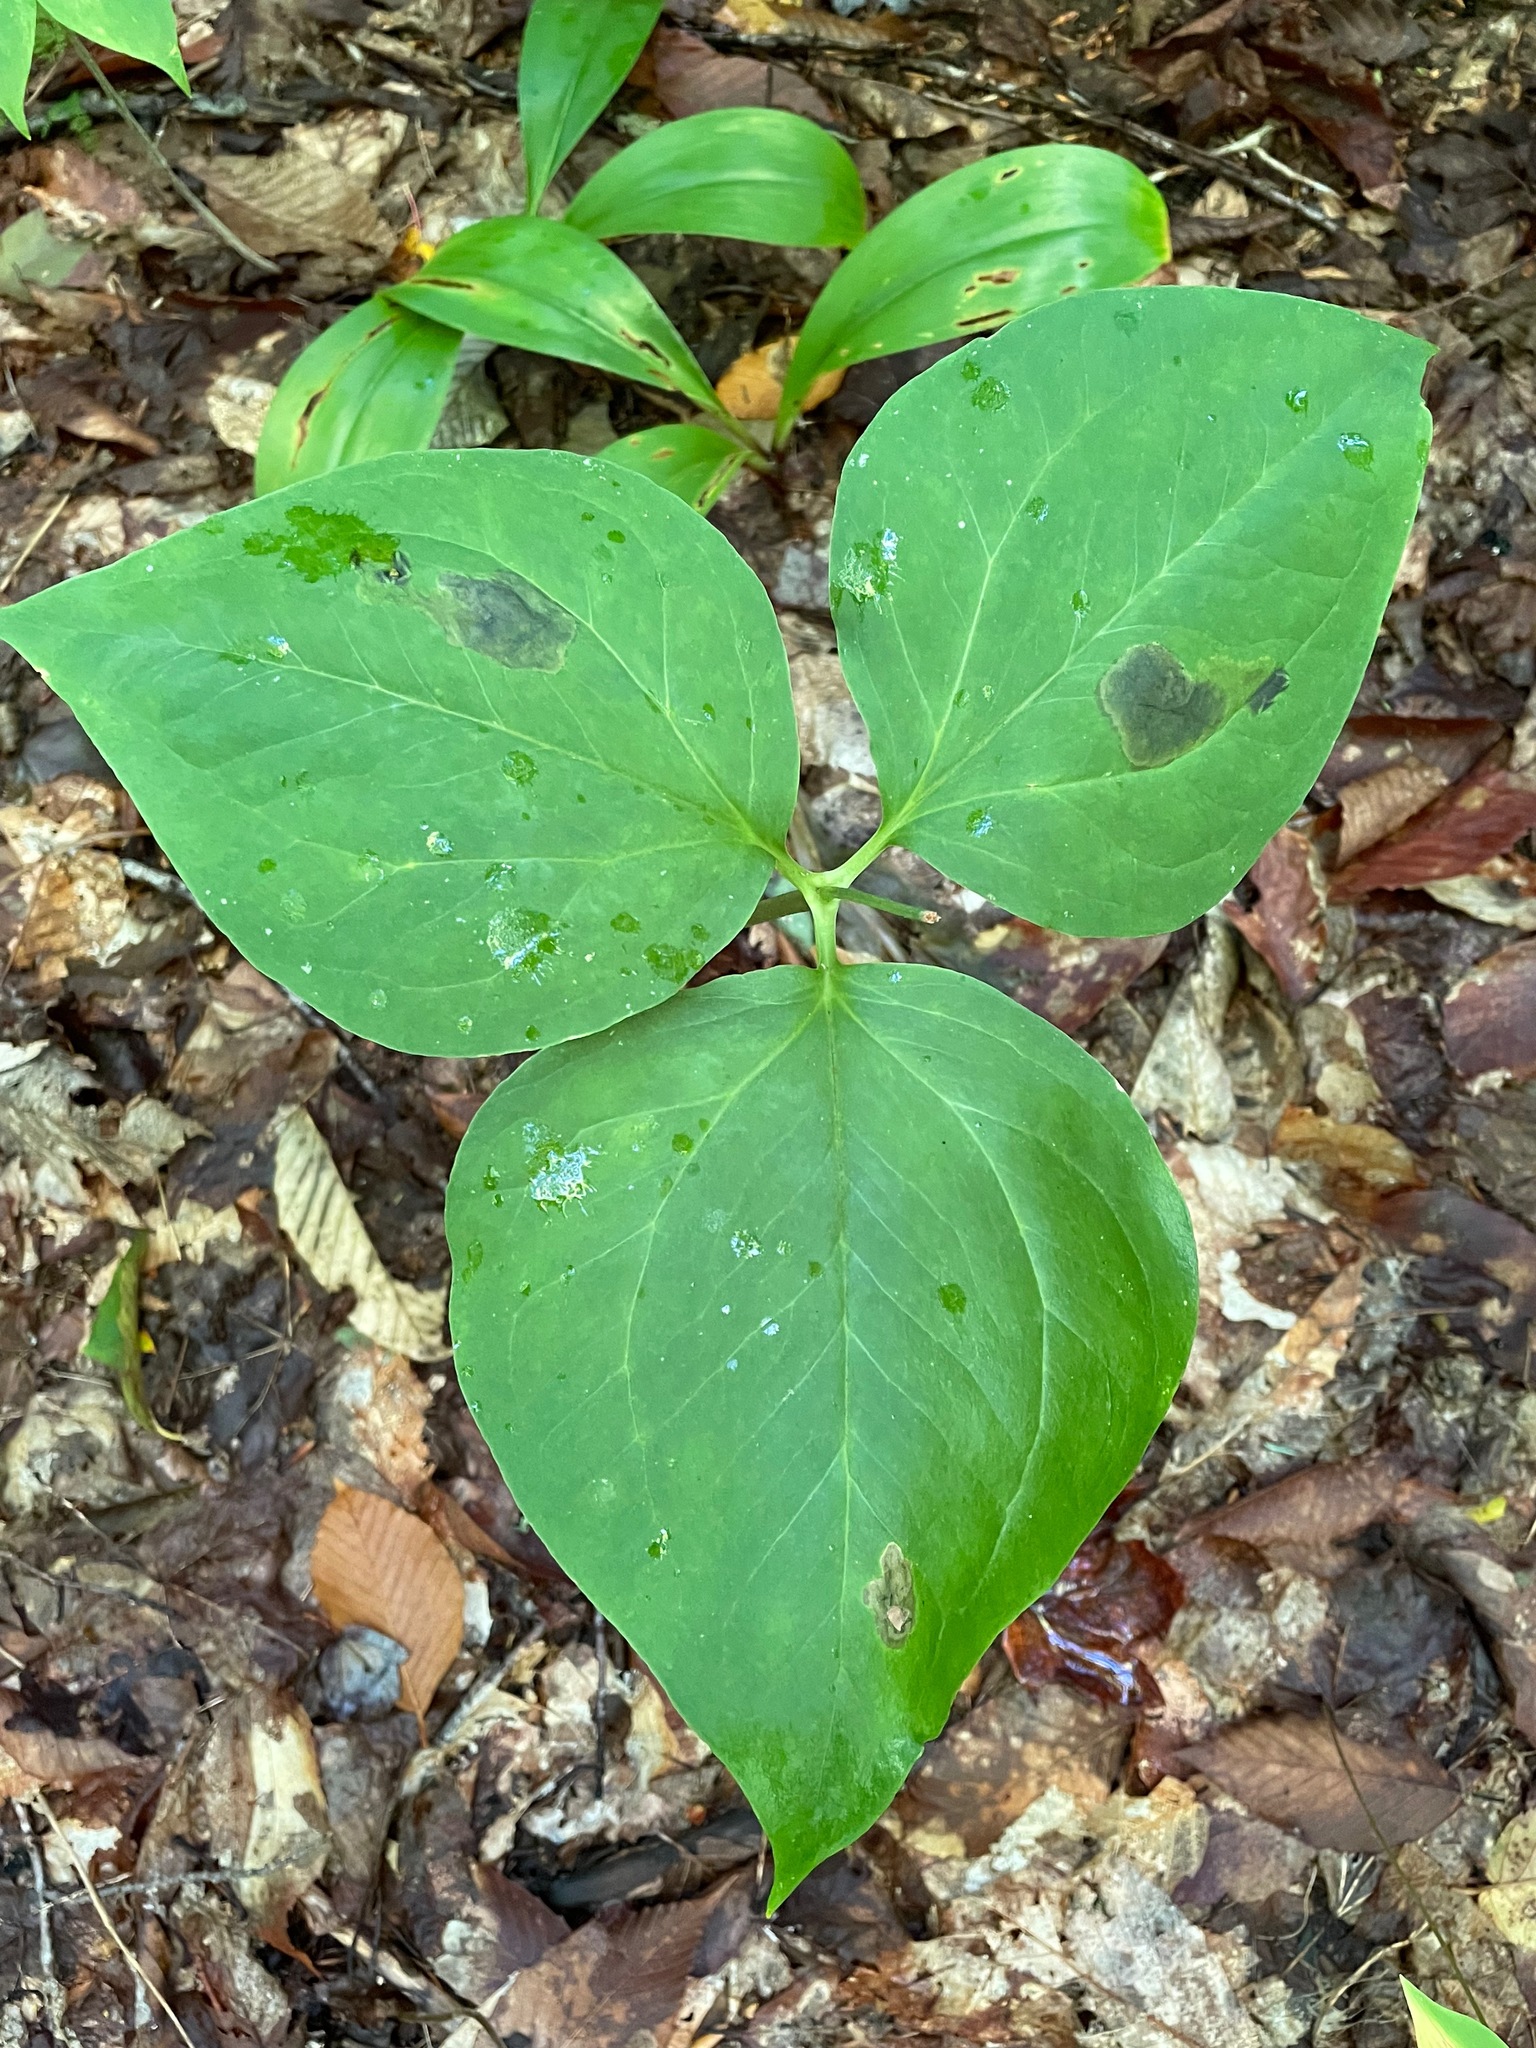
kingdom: Plantae
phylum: Tracheophyta
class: Liliopsida
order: Liliales
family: Melanthiaceae
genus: Trillium
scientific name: Trillium undulatum
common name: Paint trillium
